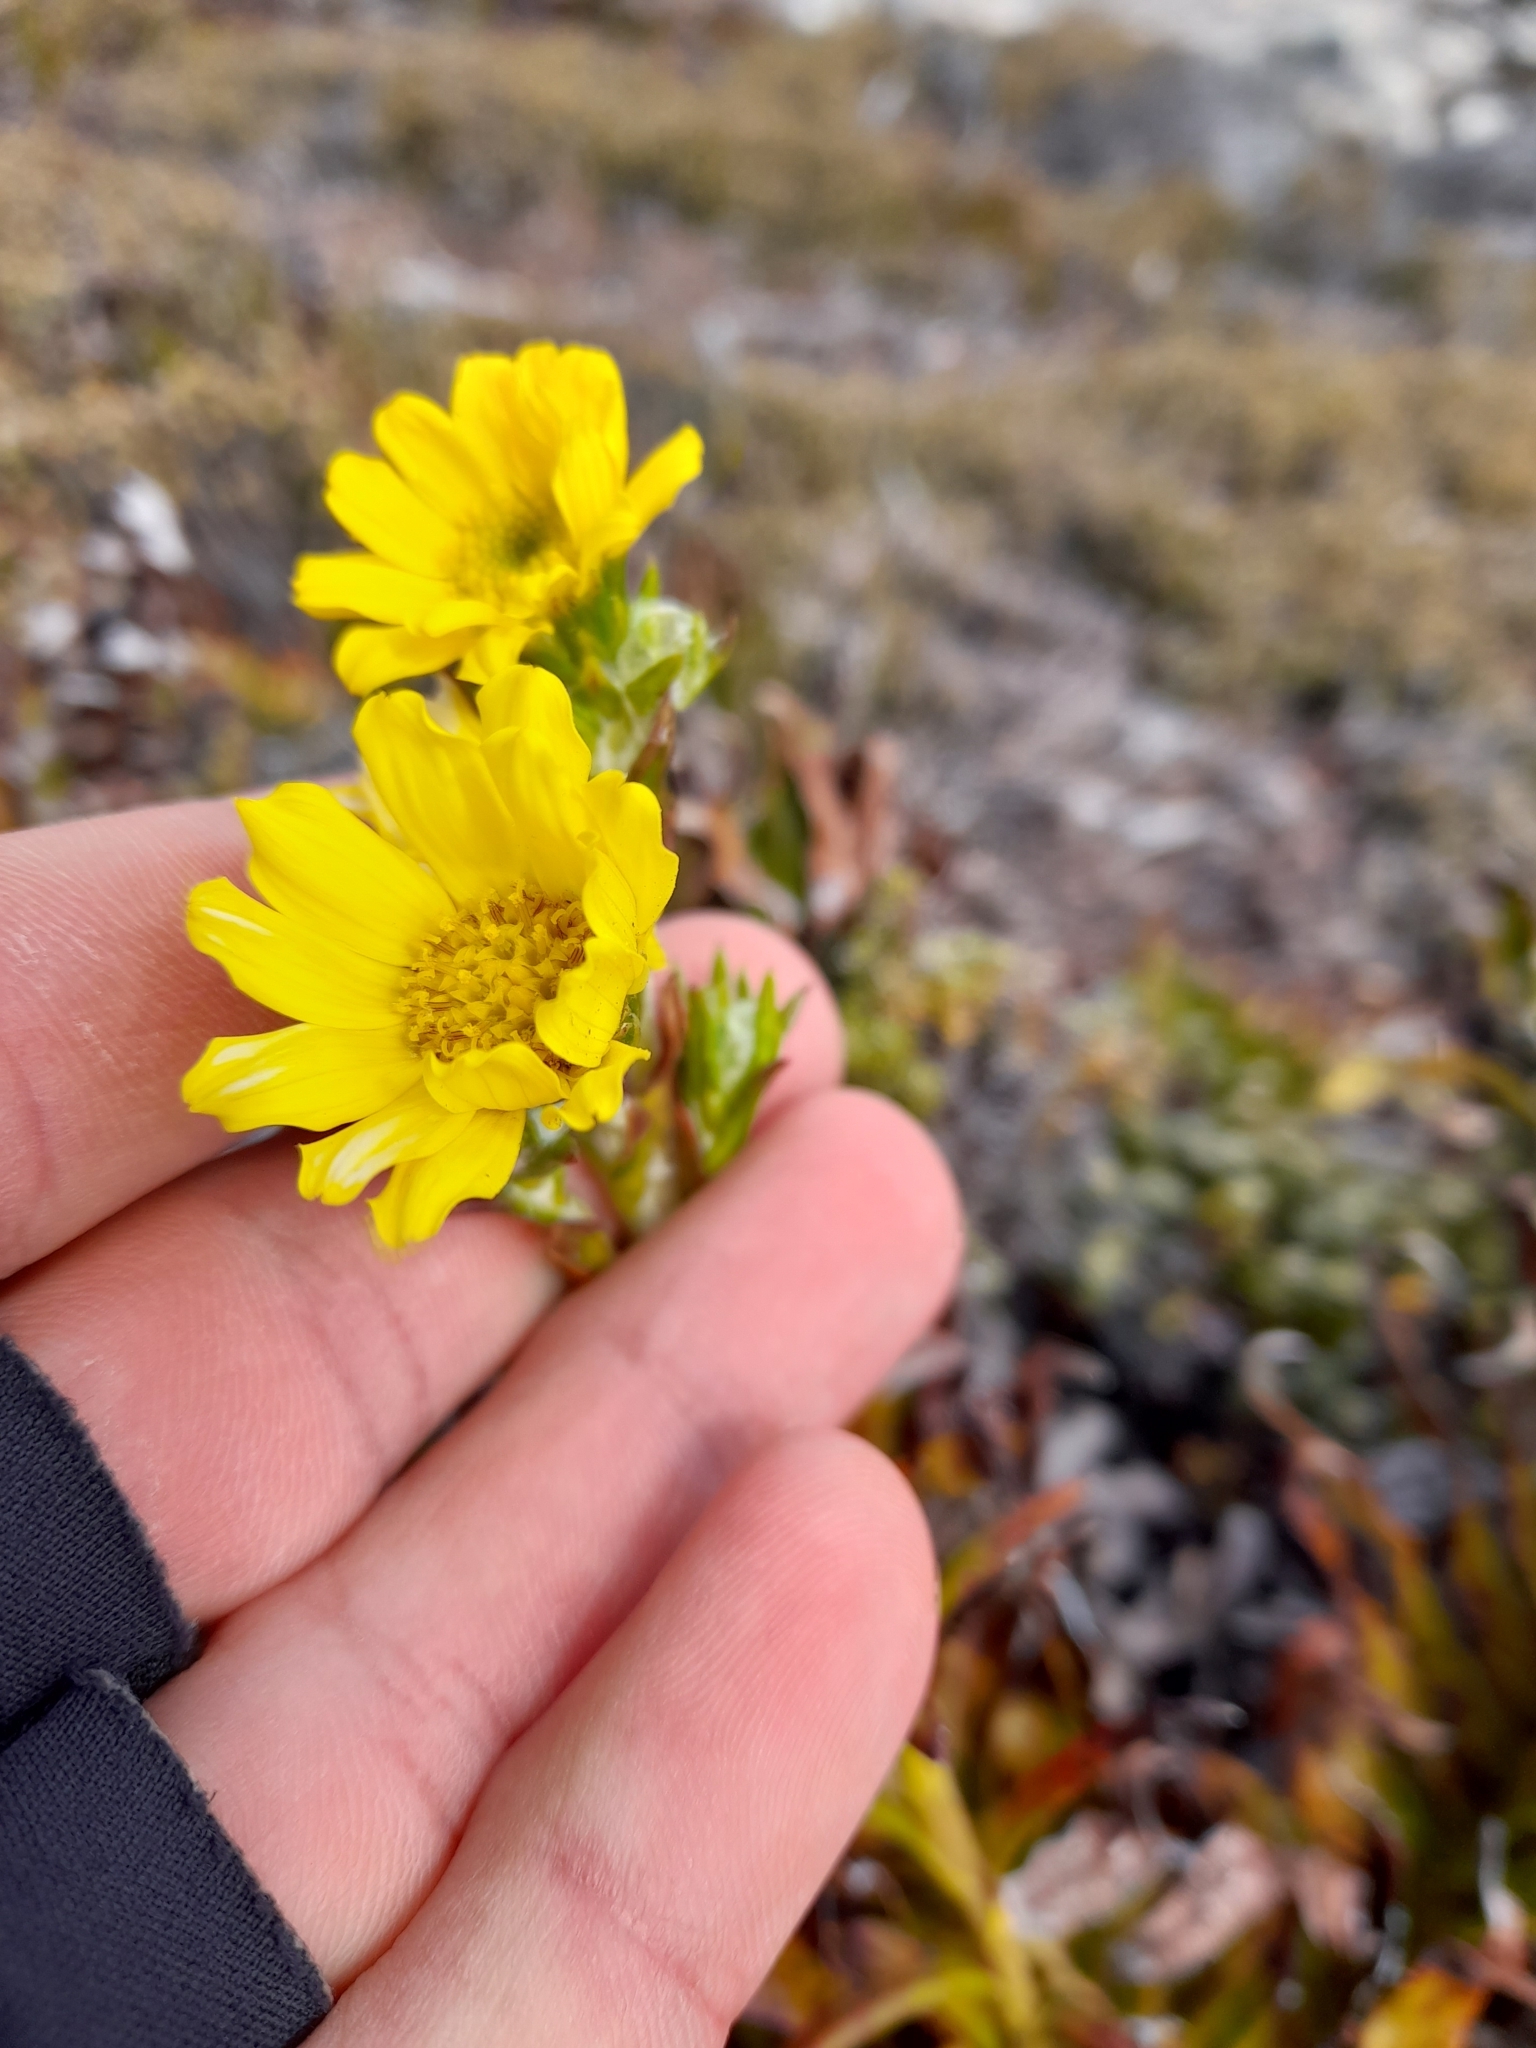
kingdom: Plantae
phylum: Tracheophyta
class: Magnoliopsida
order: Asterales
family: Asteraceae
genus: Senecio
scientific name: Senecio vaginatus
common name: Smooth falkland daisy
